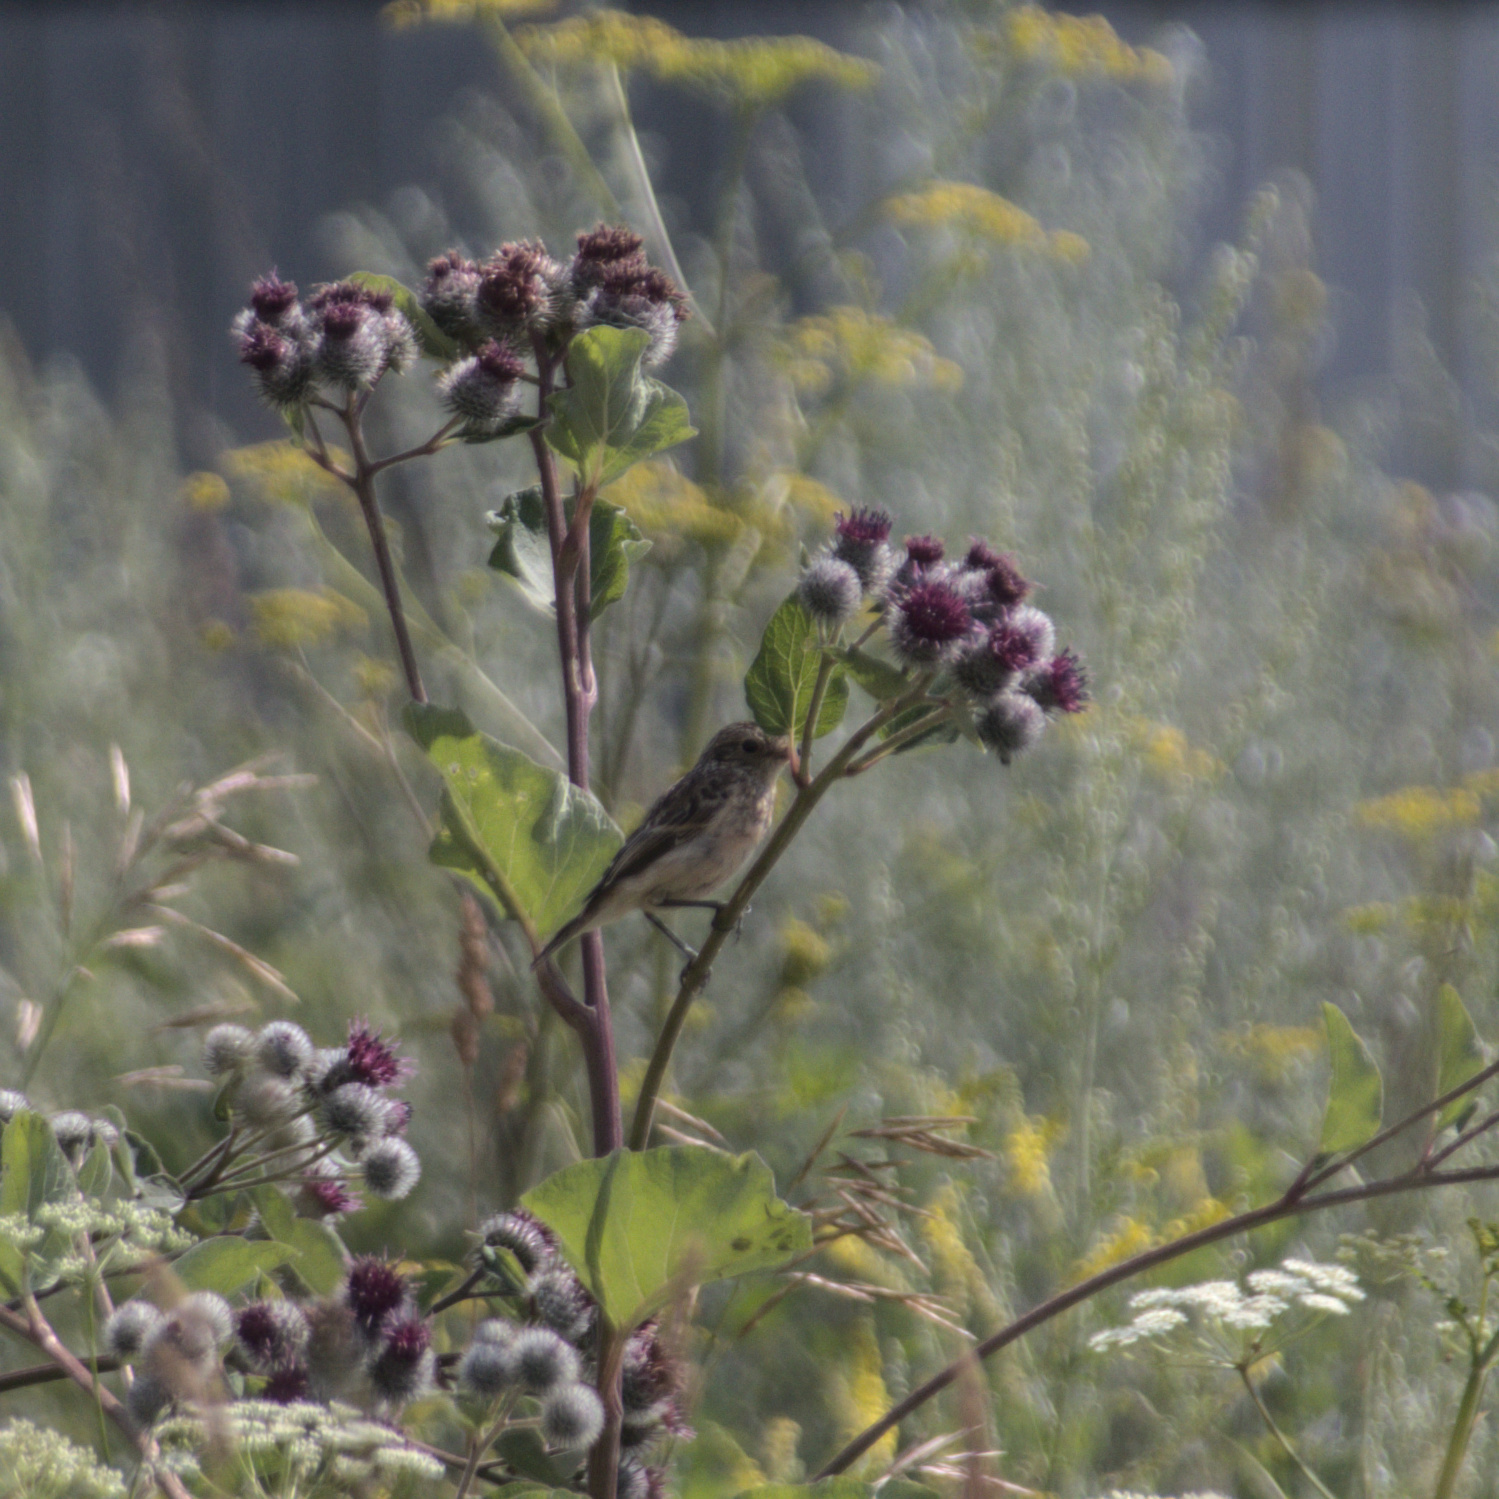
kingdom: Animalia
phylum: Chordata
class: Aves
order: Passeriformes
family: Muscicapidae
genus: Saxicola
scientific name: Saxicola maurus
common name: Siberian stonechat
